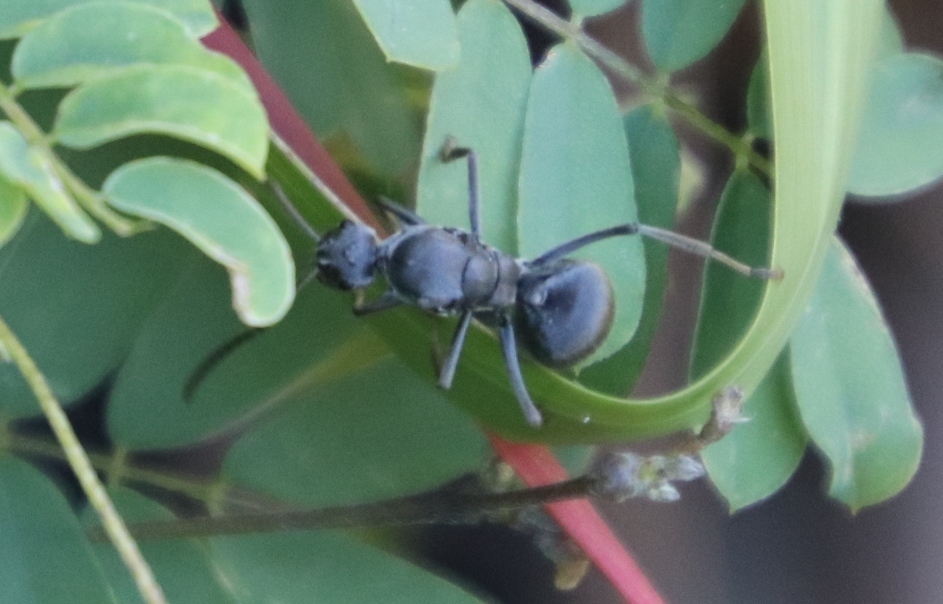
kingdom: Animalia
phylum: Arthropoda
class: Insecta
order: Hymenoptera
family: Formicidae
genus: Polyrhachis
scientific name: Polyrhachis schistacea
